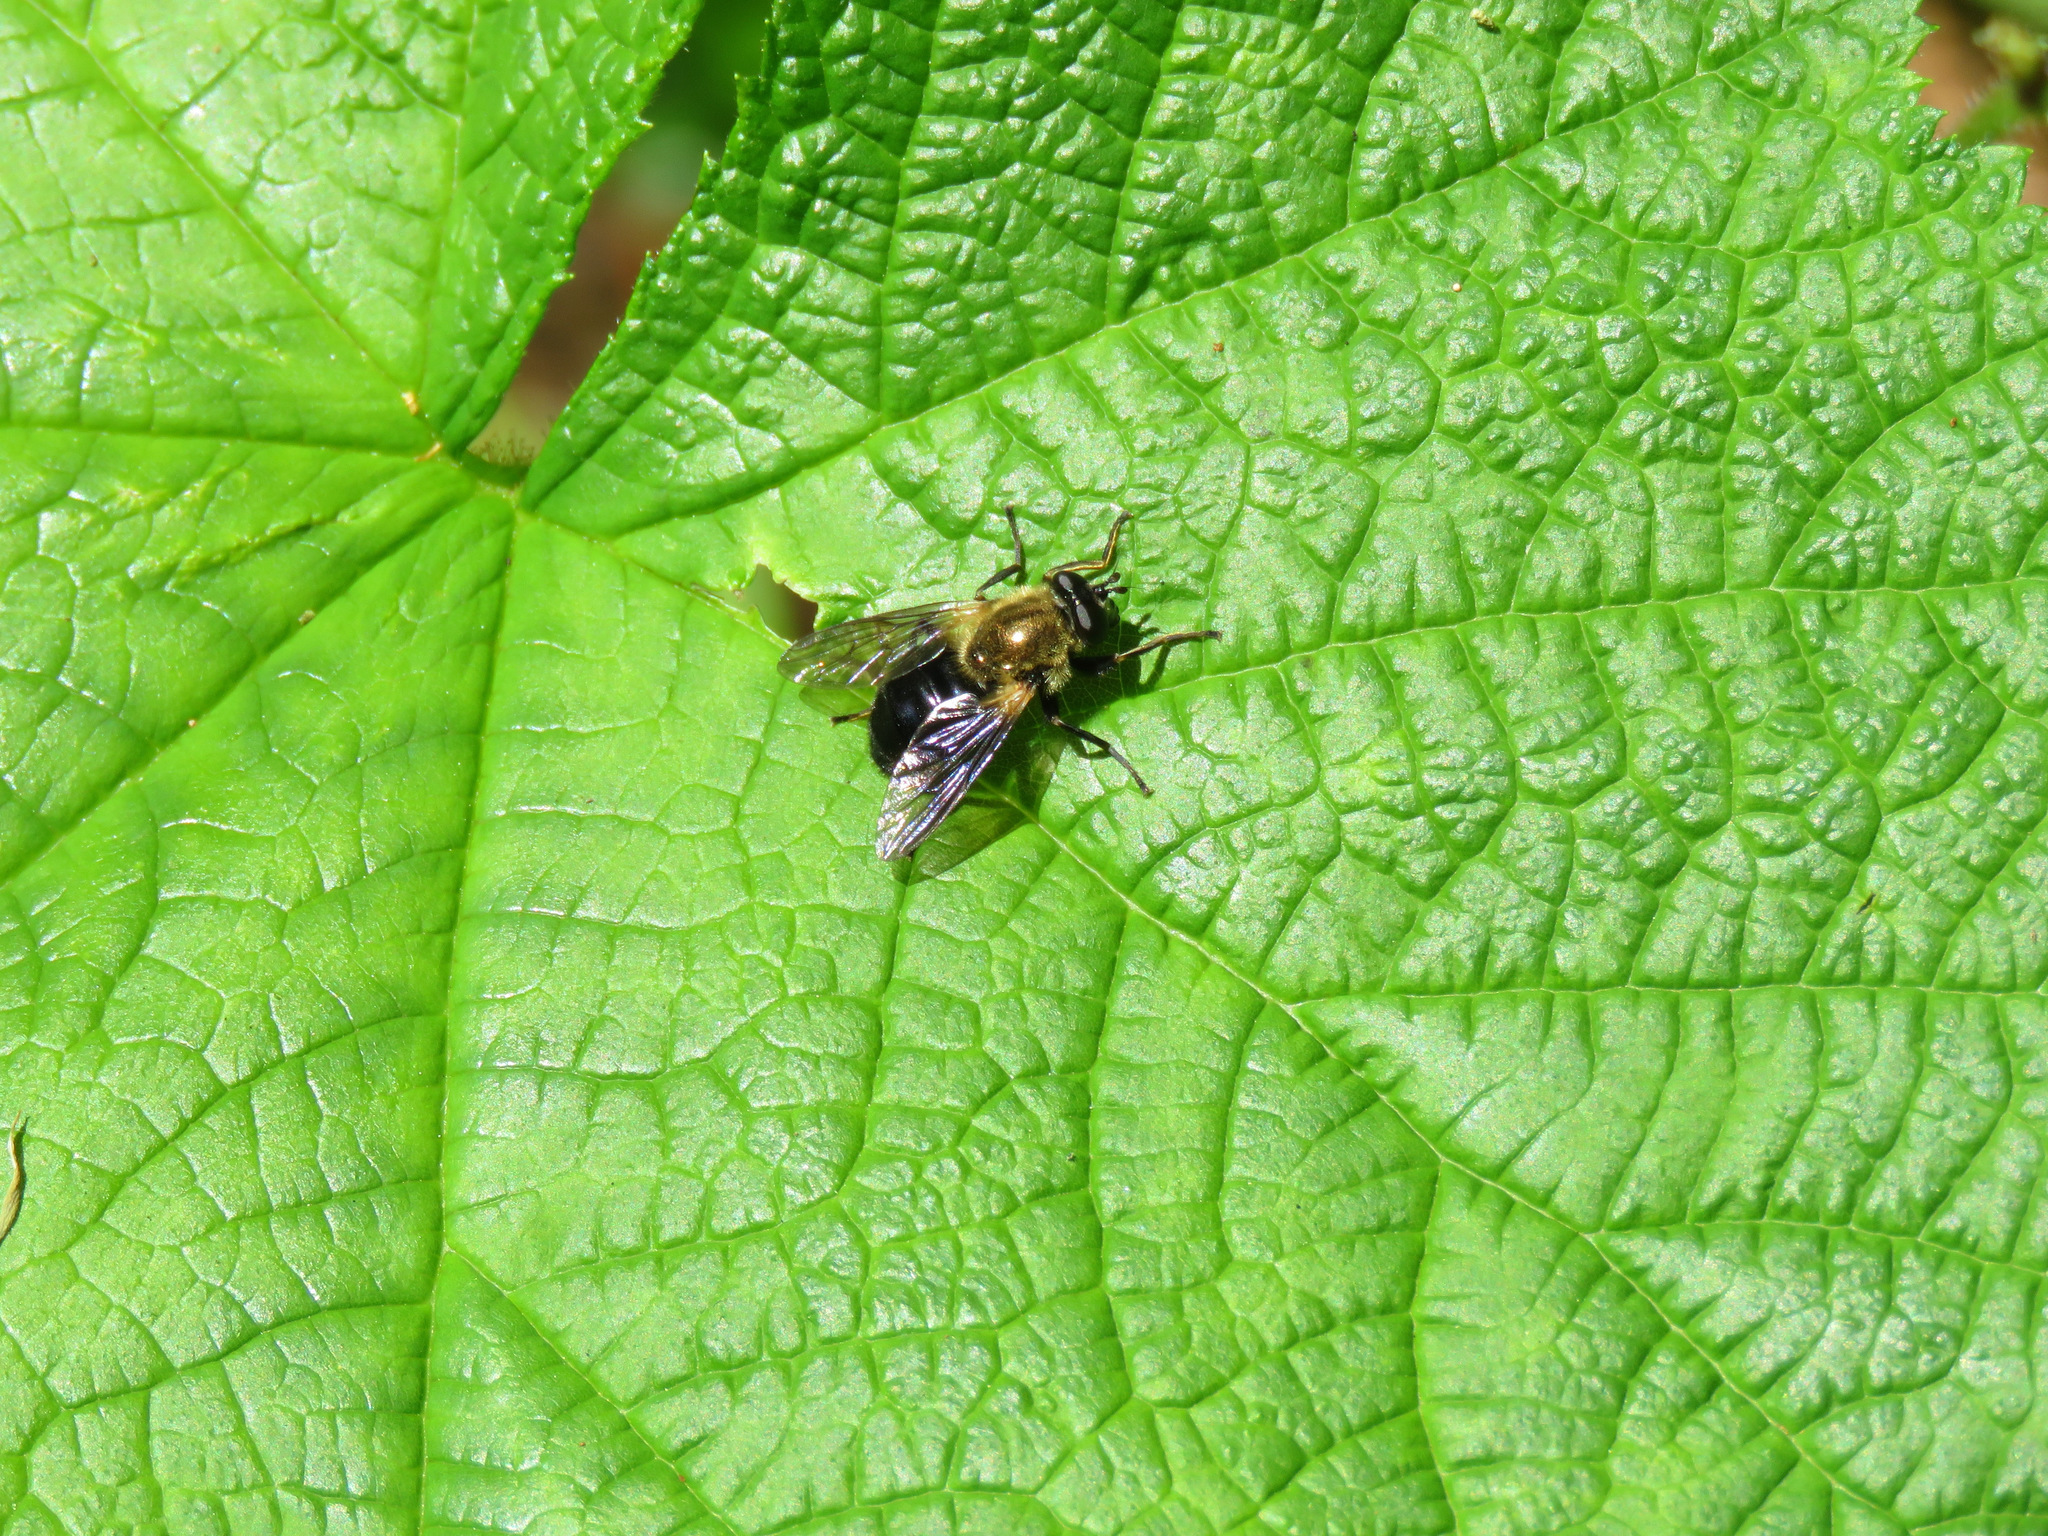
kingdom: Animalia
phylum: Arthropoda
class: Insecta
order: Diptera
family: Syrphidae
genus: Blera
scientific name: Blera robusta
